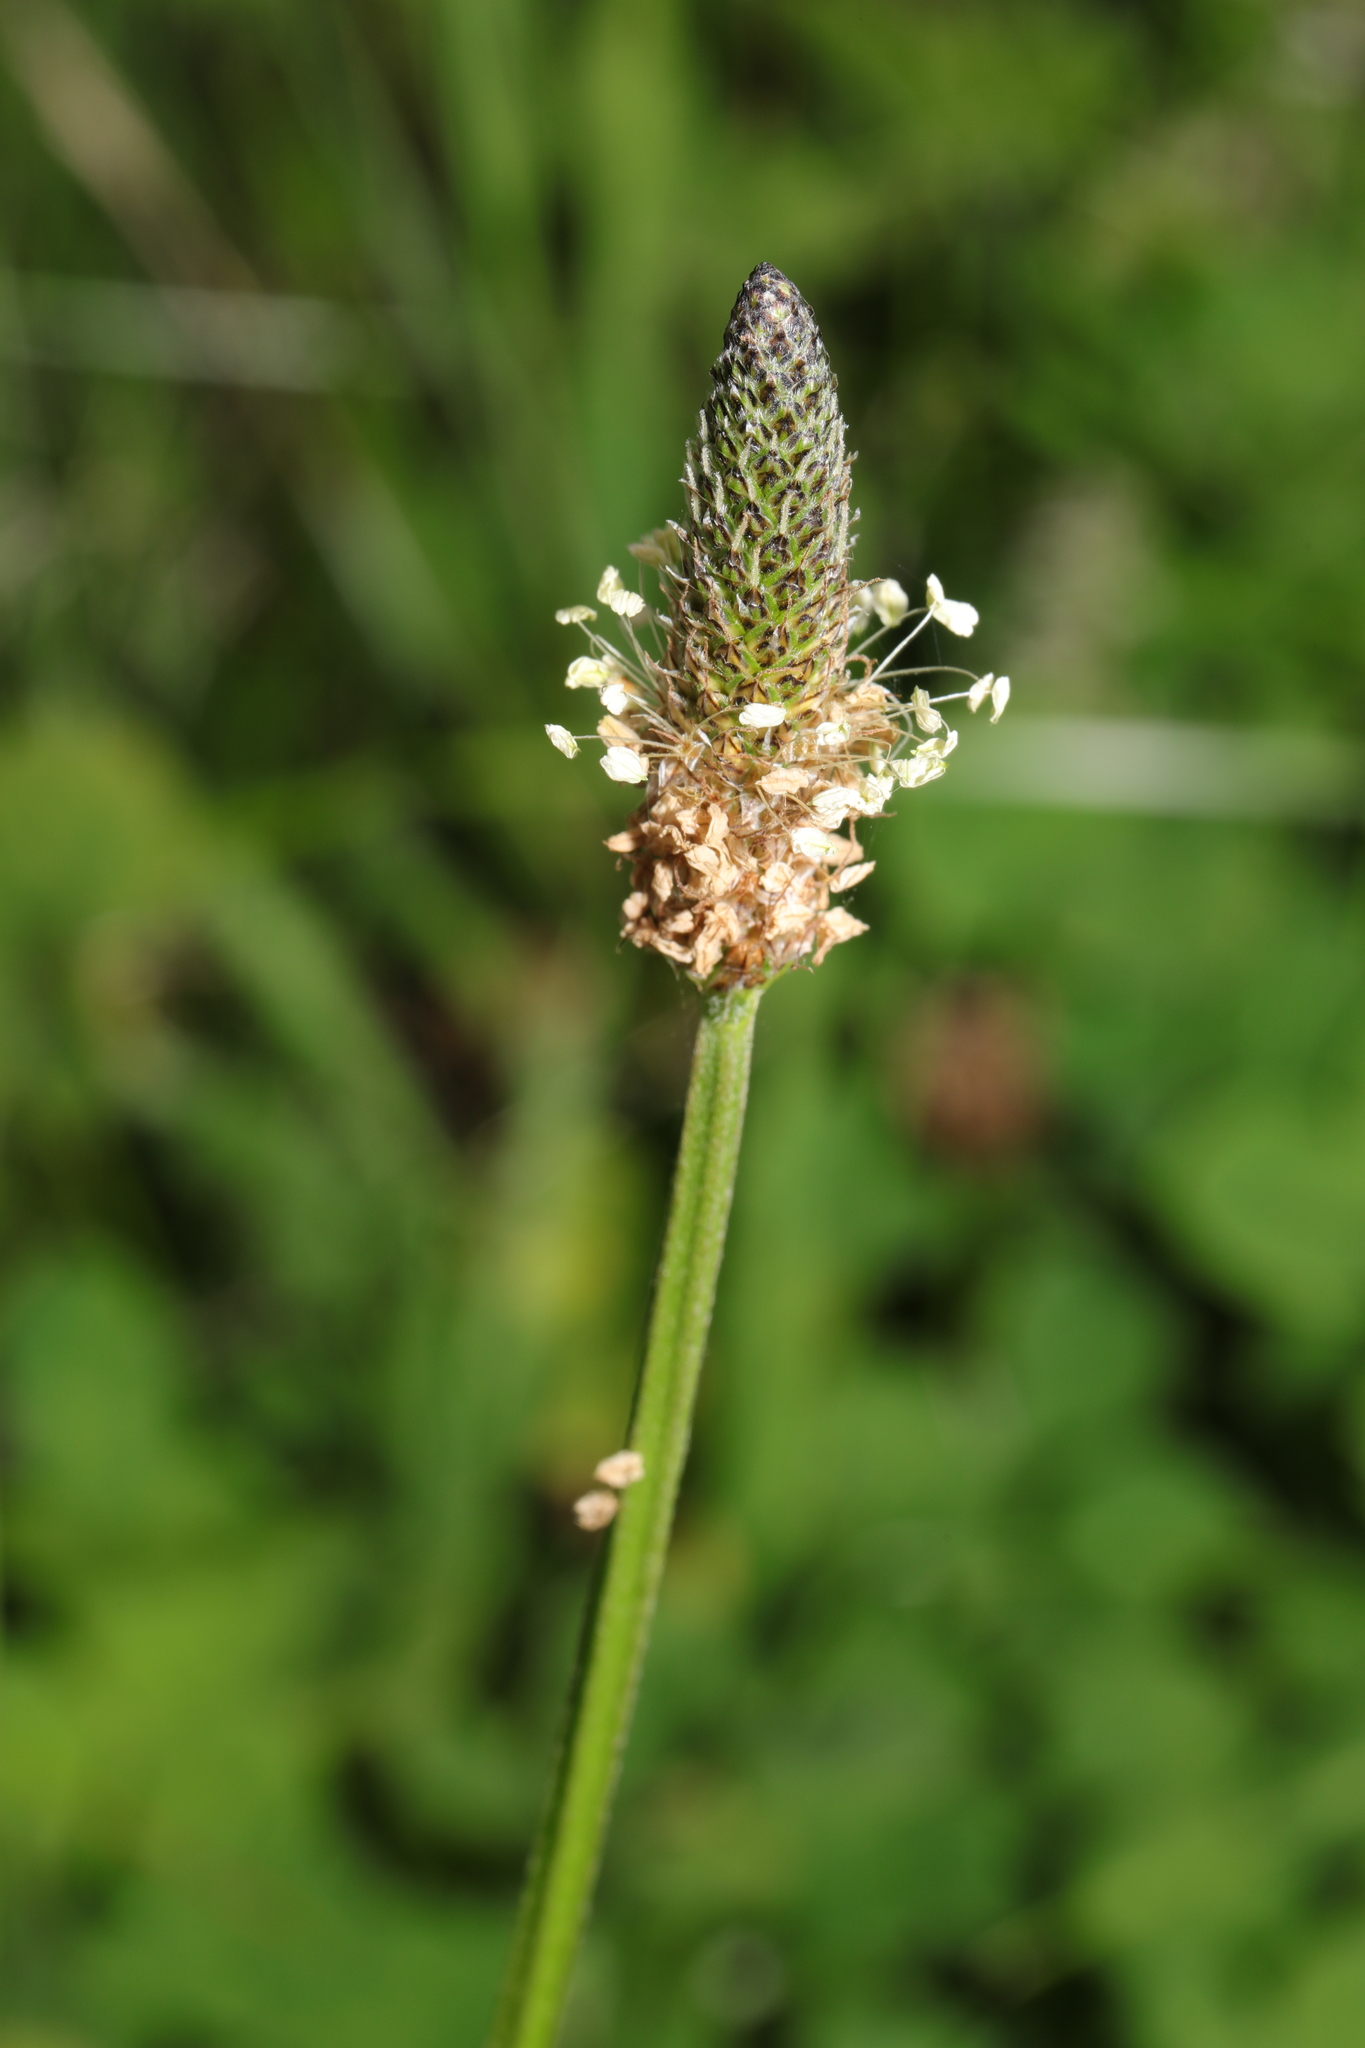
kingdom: Plantae
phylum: Tracheophyta
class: Magnoliopsida
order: Lamiales
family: Plantaginaceae
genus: Plantago
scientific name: Plantago lanceolata
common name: Ribwort plantain
